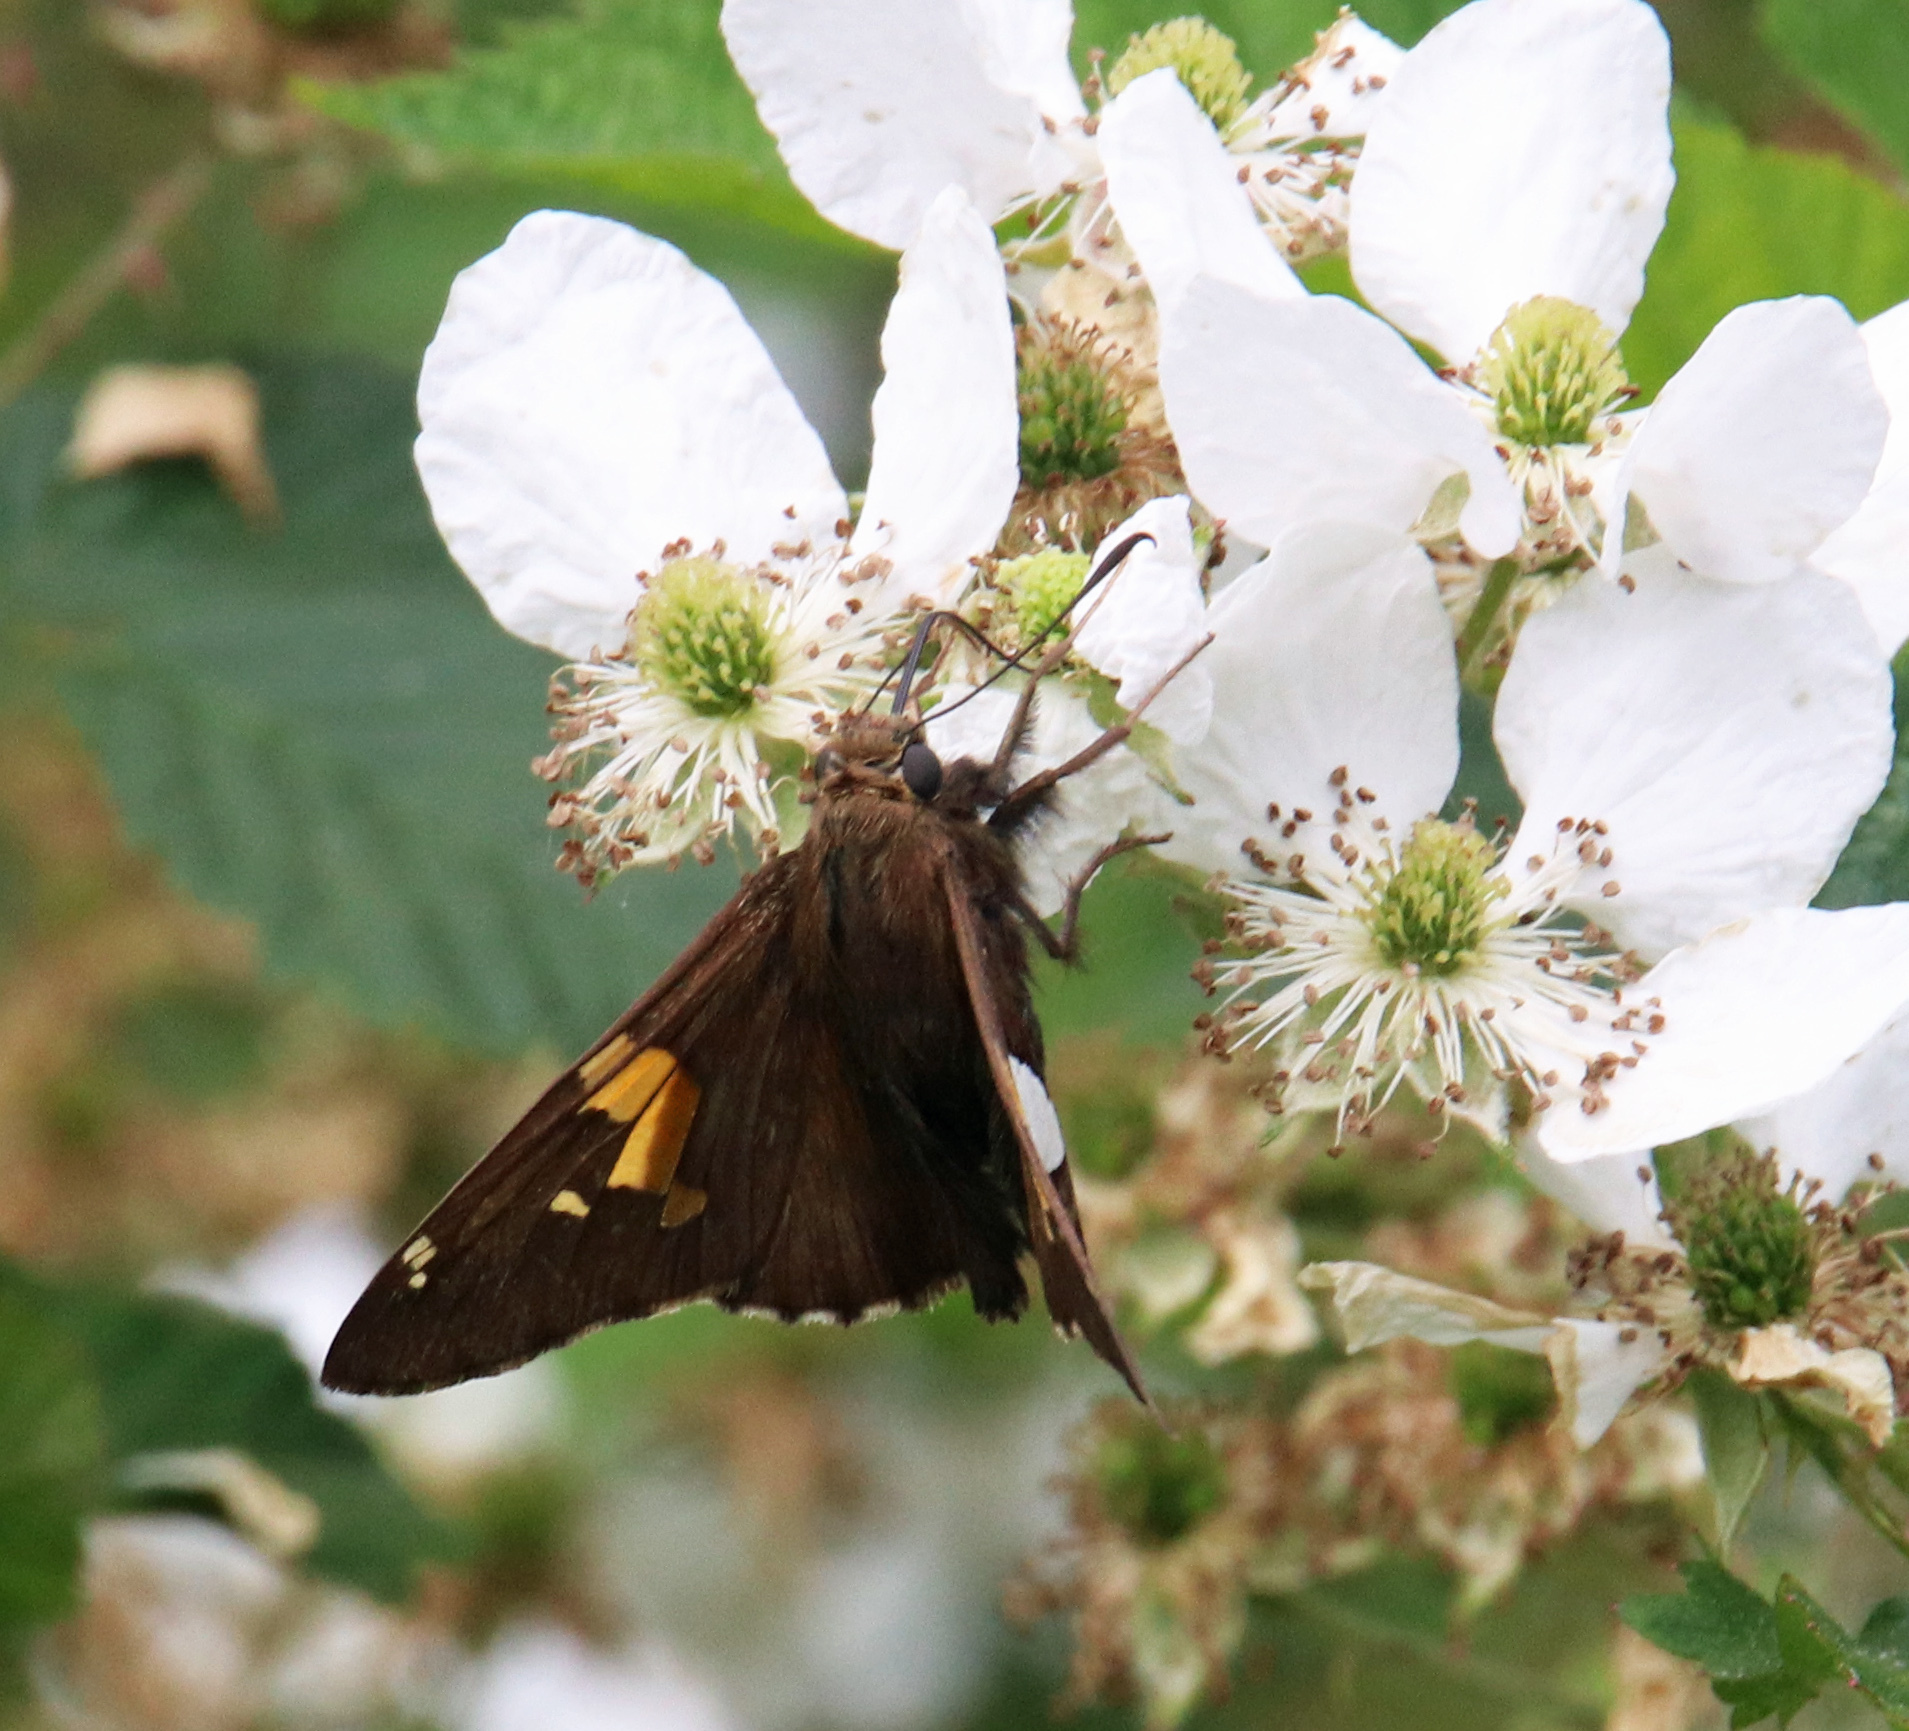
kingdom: Animalia
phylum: Arthropoda
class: Insecta
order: Lepidoptera
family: Hesperiidae
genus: Epargyreus
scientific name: Epargyreus clarus
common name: Silver-spotted skipper
